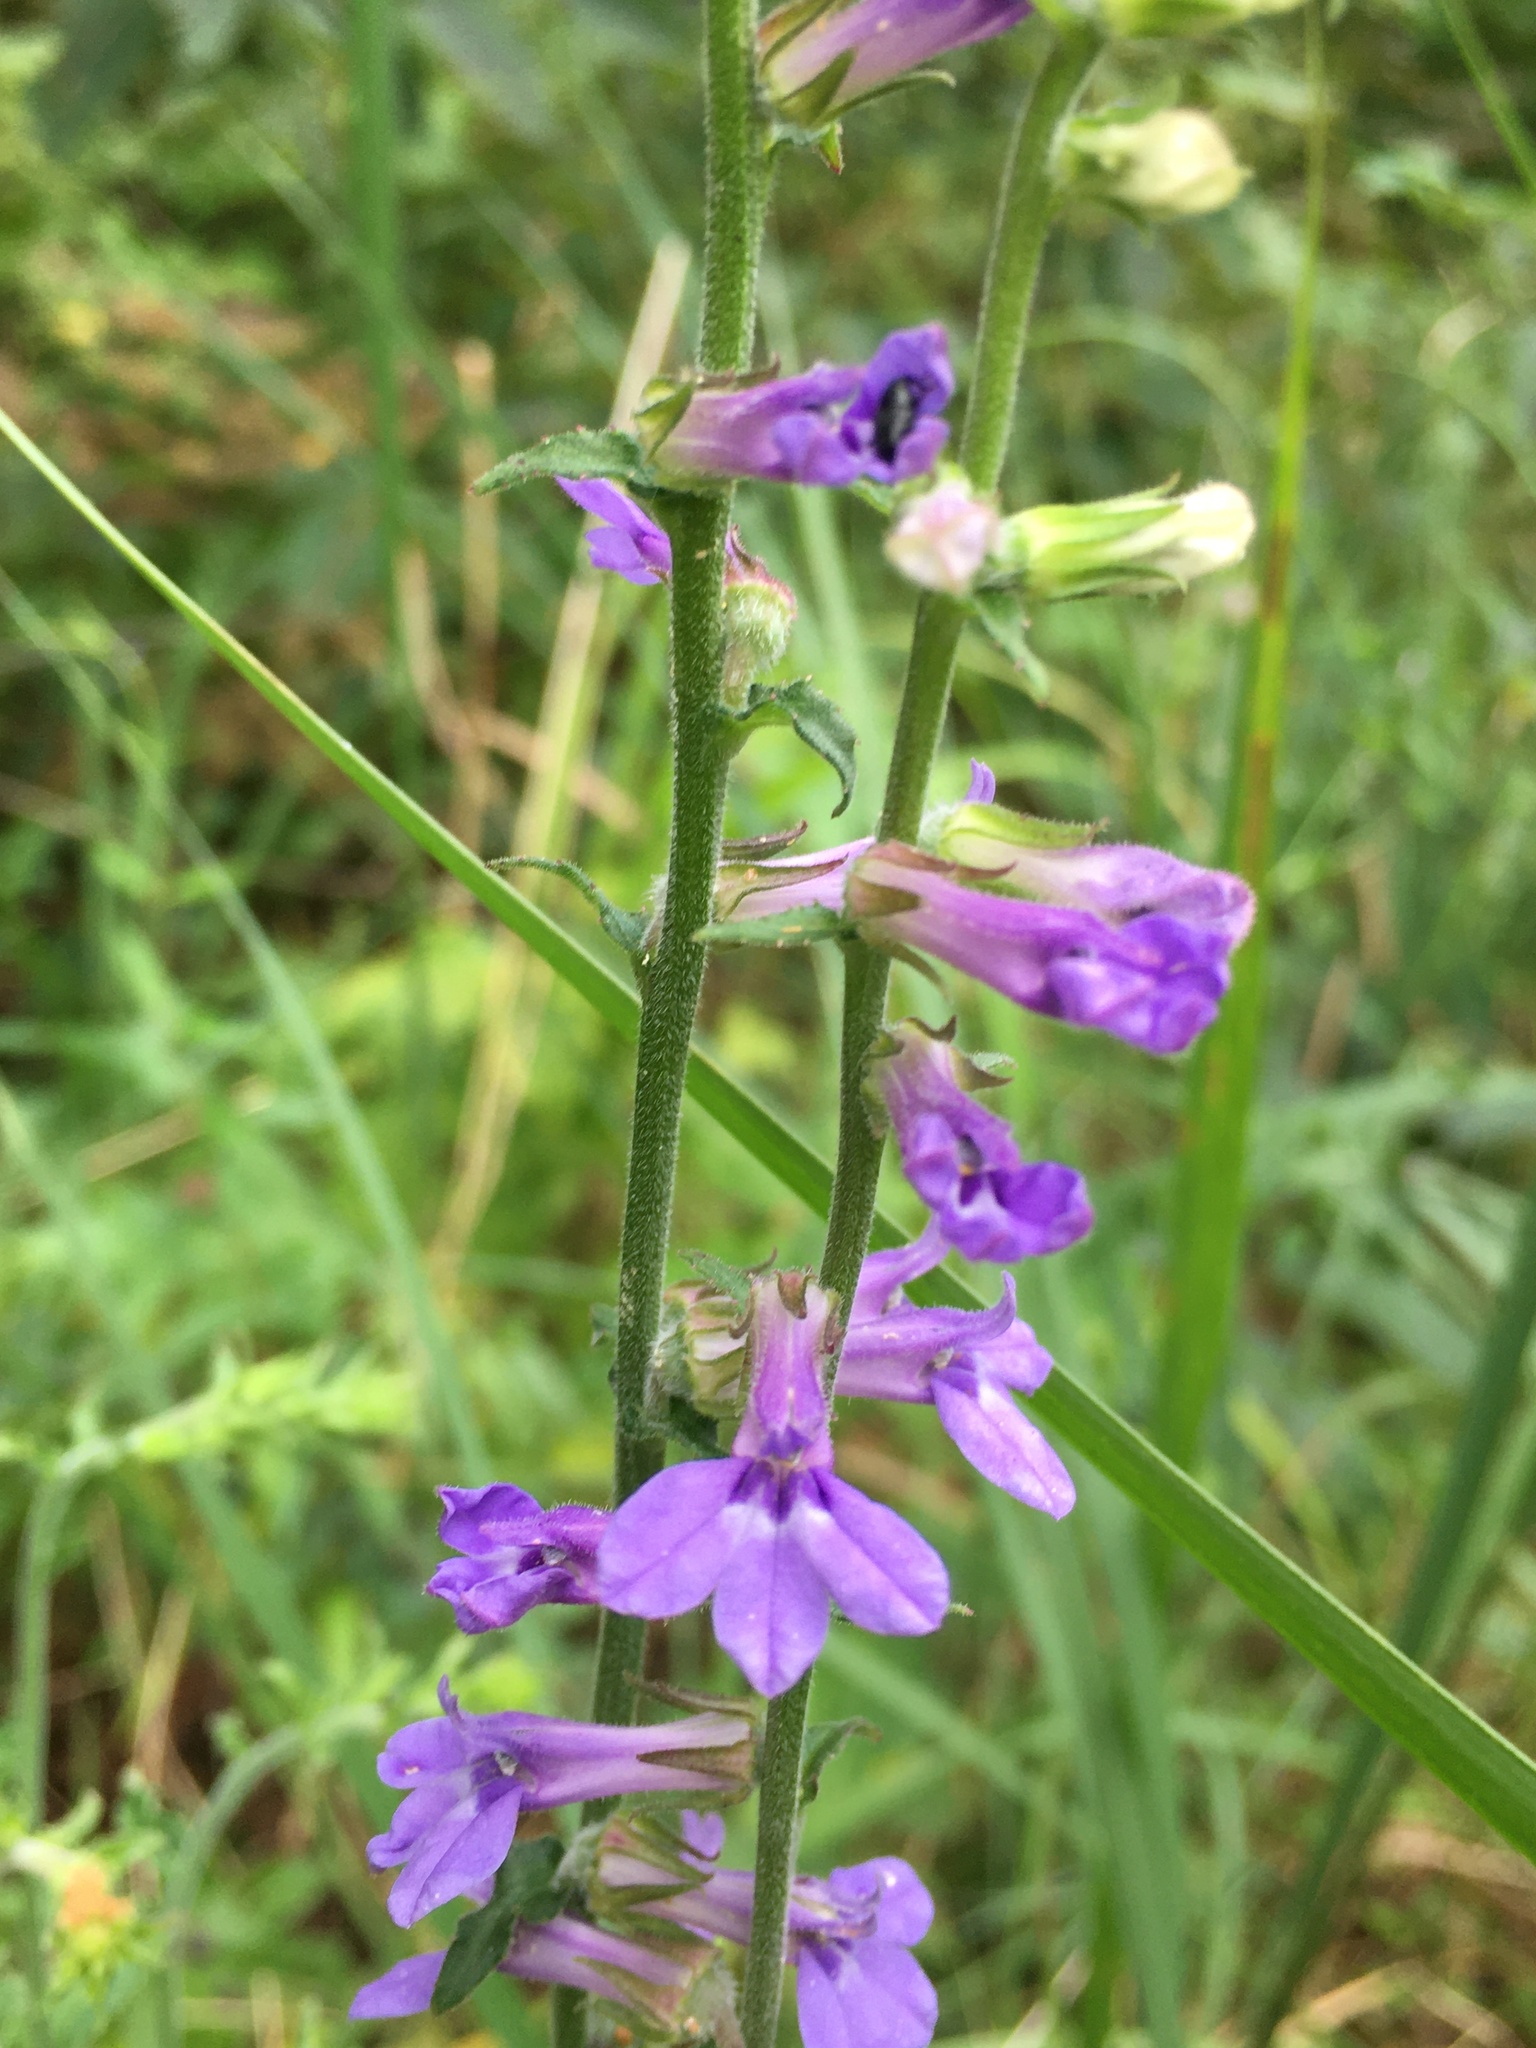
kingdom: Plantae
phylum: Tracheophyta
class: Magnoliopsida
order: Asterales
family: Campanulaceae
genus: Lobelia
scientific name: Lobelia puberula
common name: Purple dewdrop
